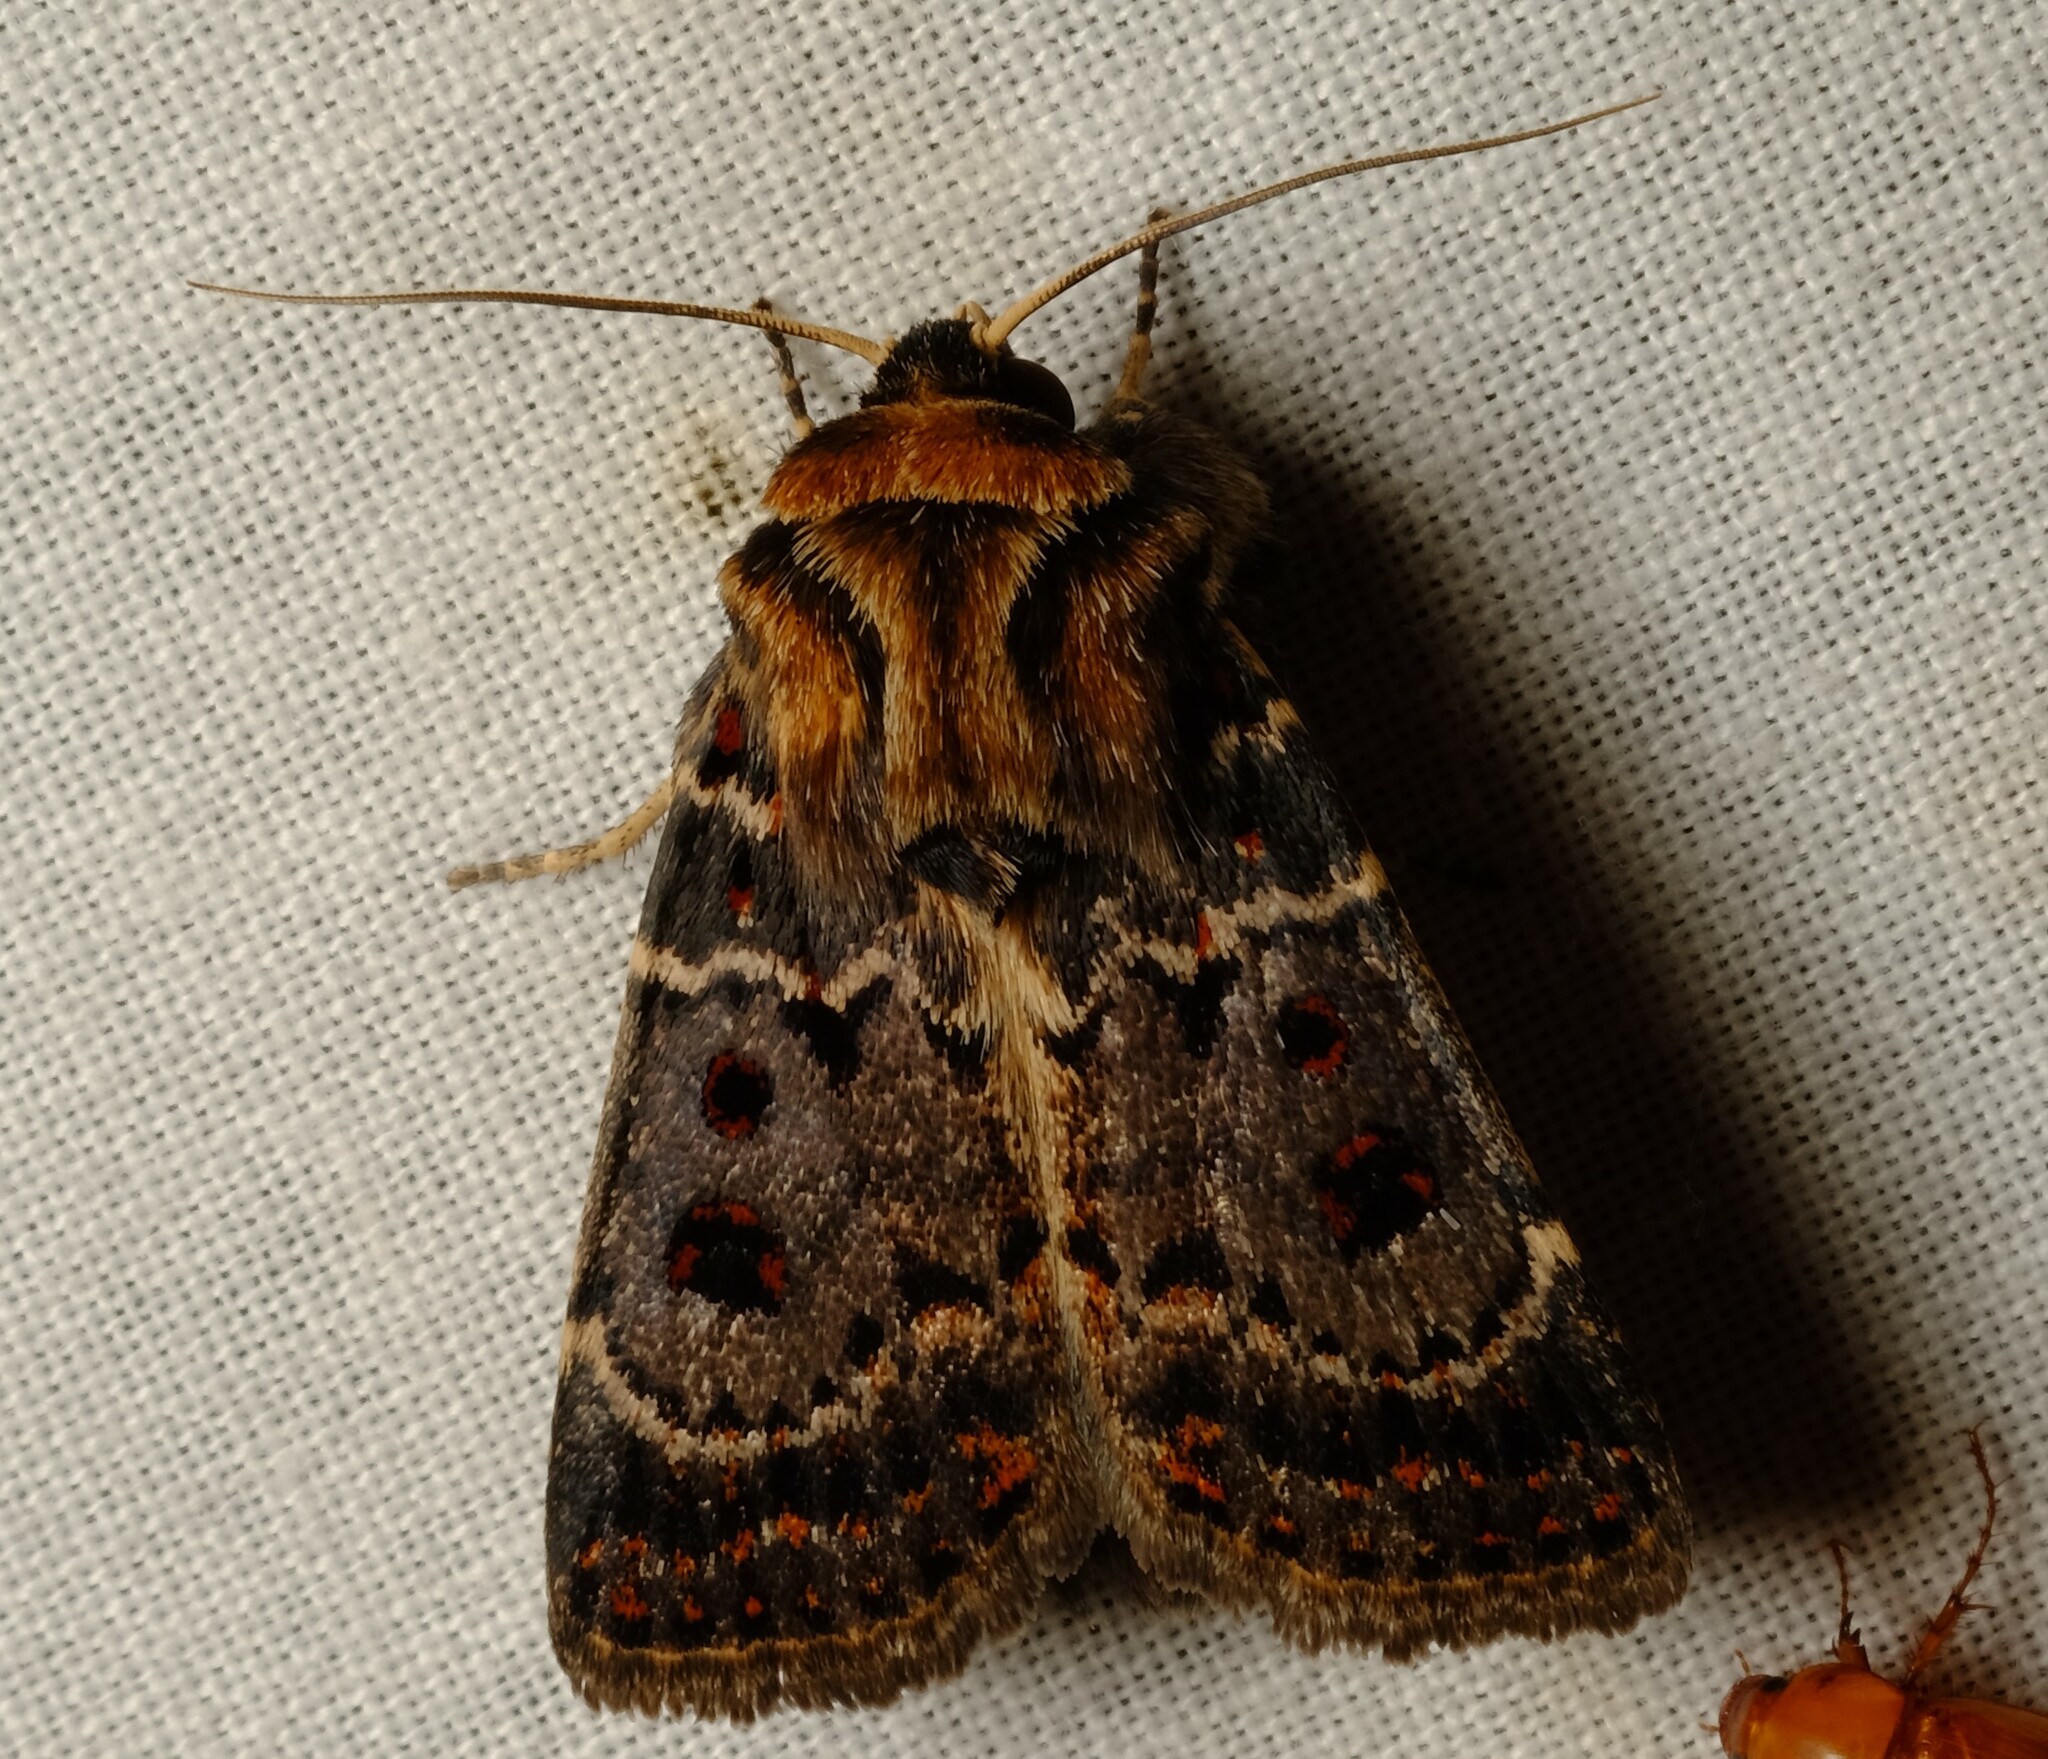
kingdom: Animalia
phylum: Arthropoda
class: Insecta
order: Lepidoptera
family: Noctuidae
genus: Proteuxoa
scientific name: Proteuxoa sanguinipuncta
